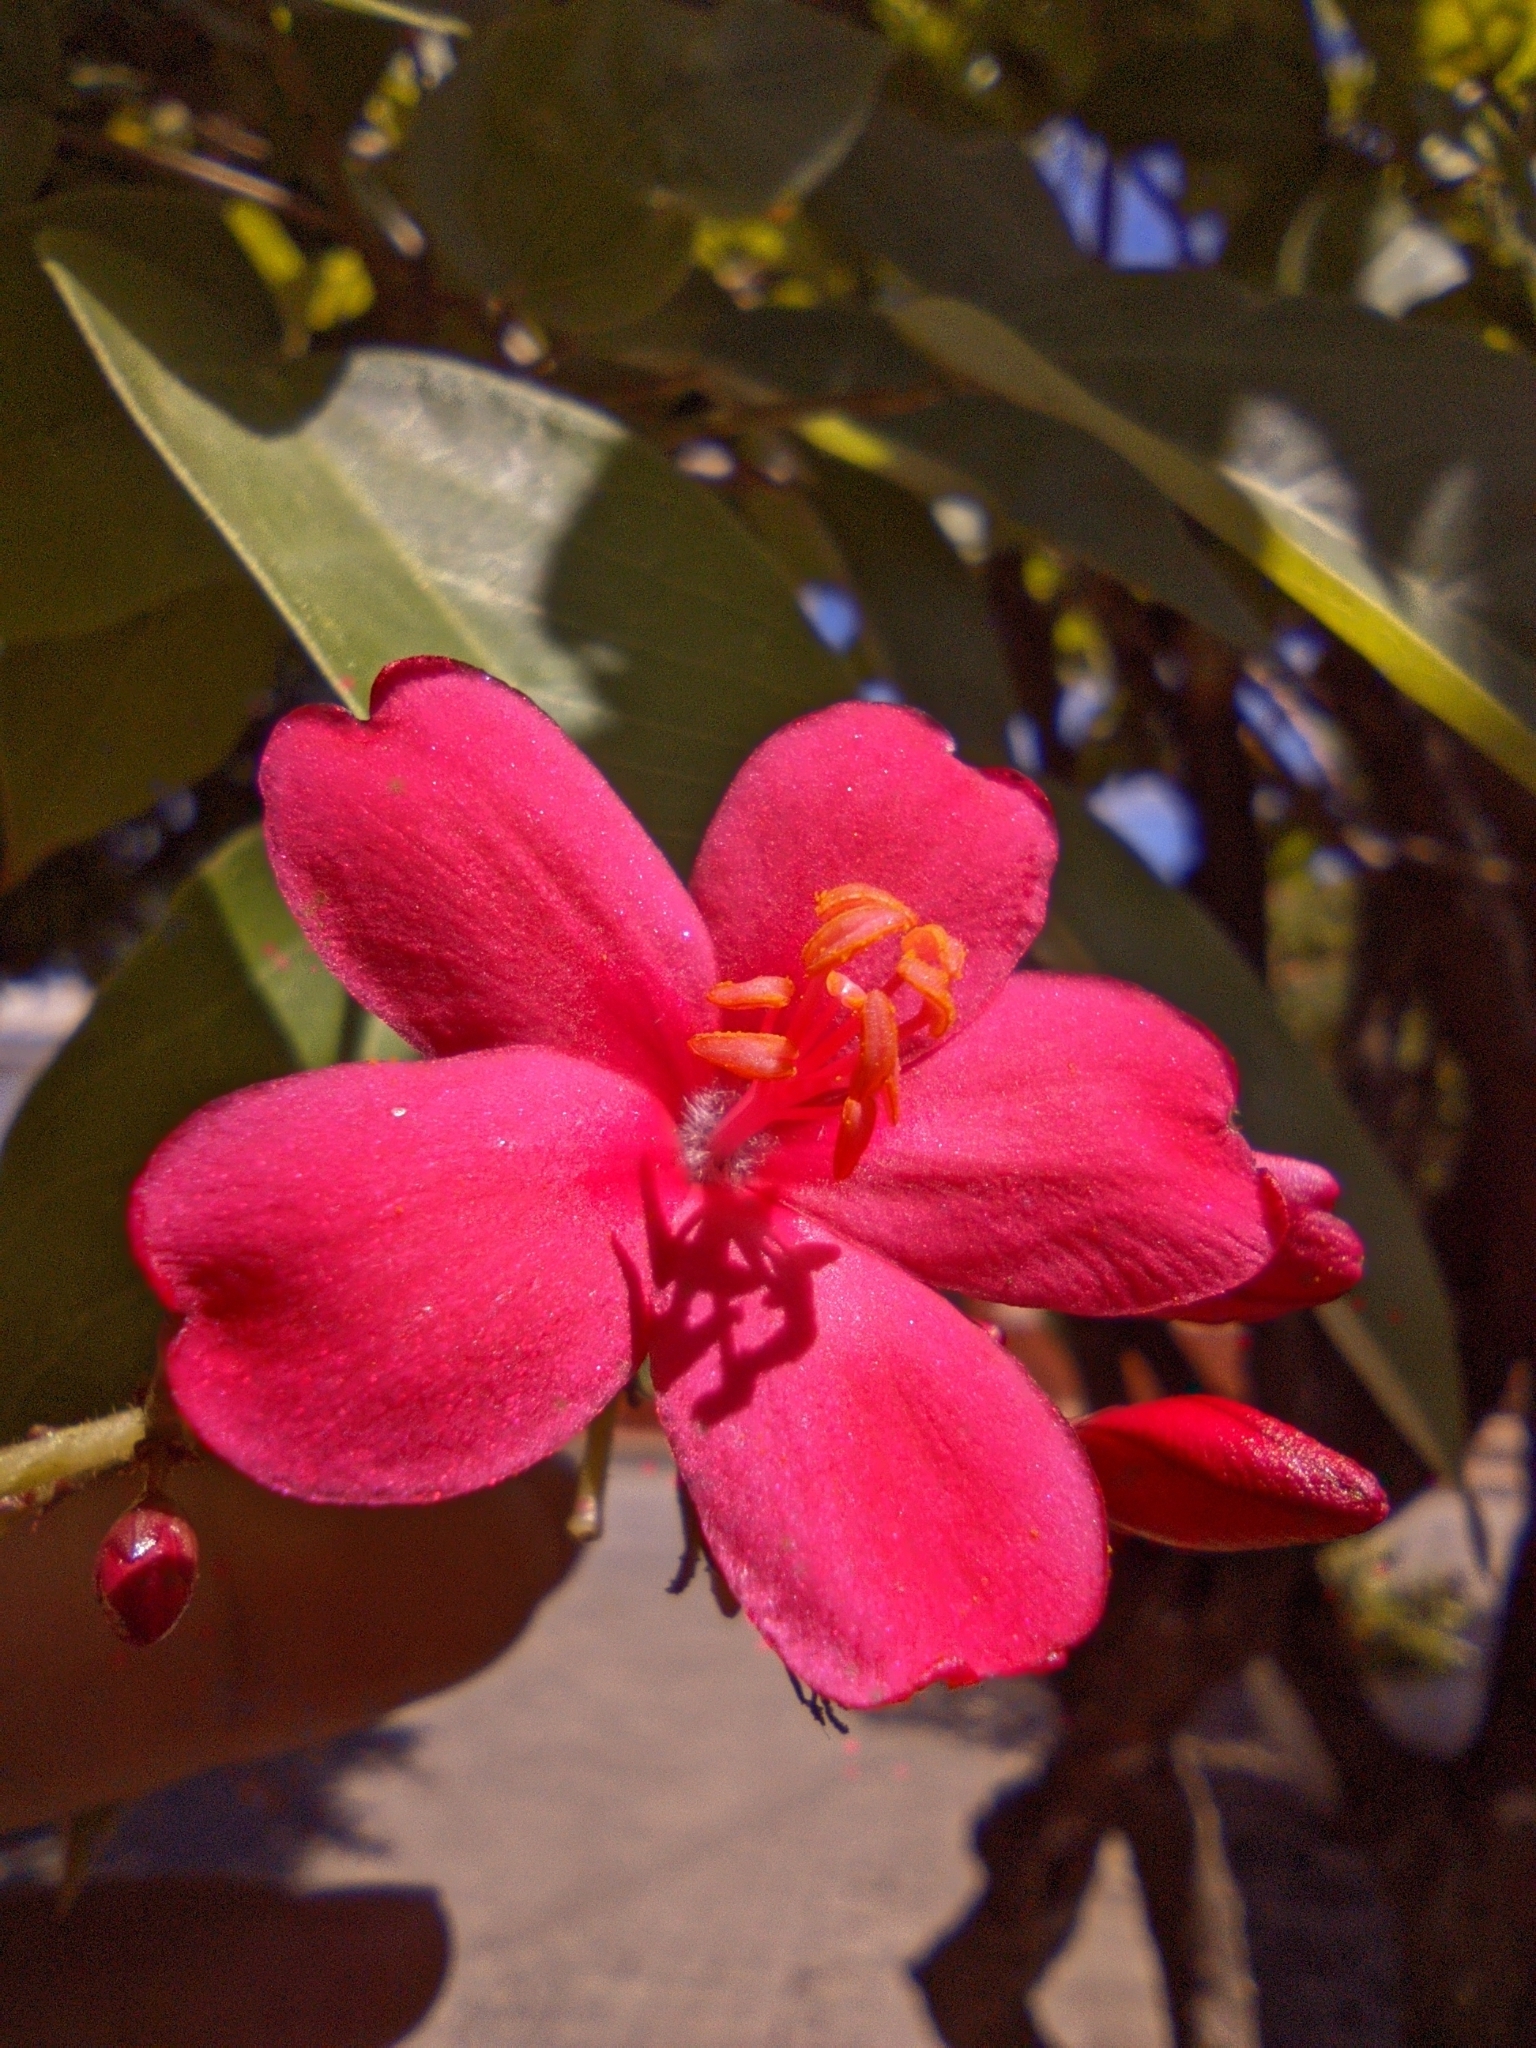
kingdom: Plantae
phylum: Tracheophyta
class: Magnoliopsida
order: Malpighiales
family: Euphorbiaceae
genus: Jatropha
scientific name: Jatropha integerrima
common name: Peregrina
